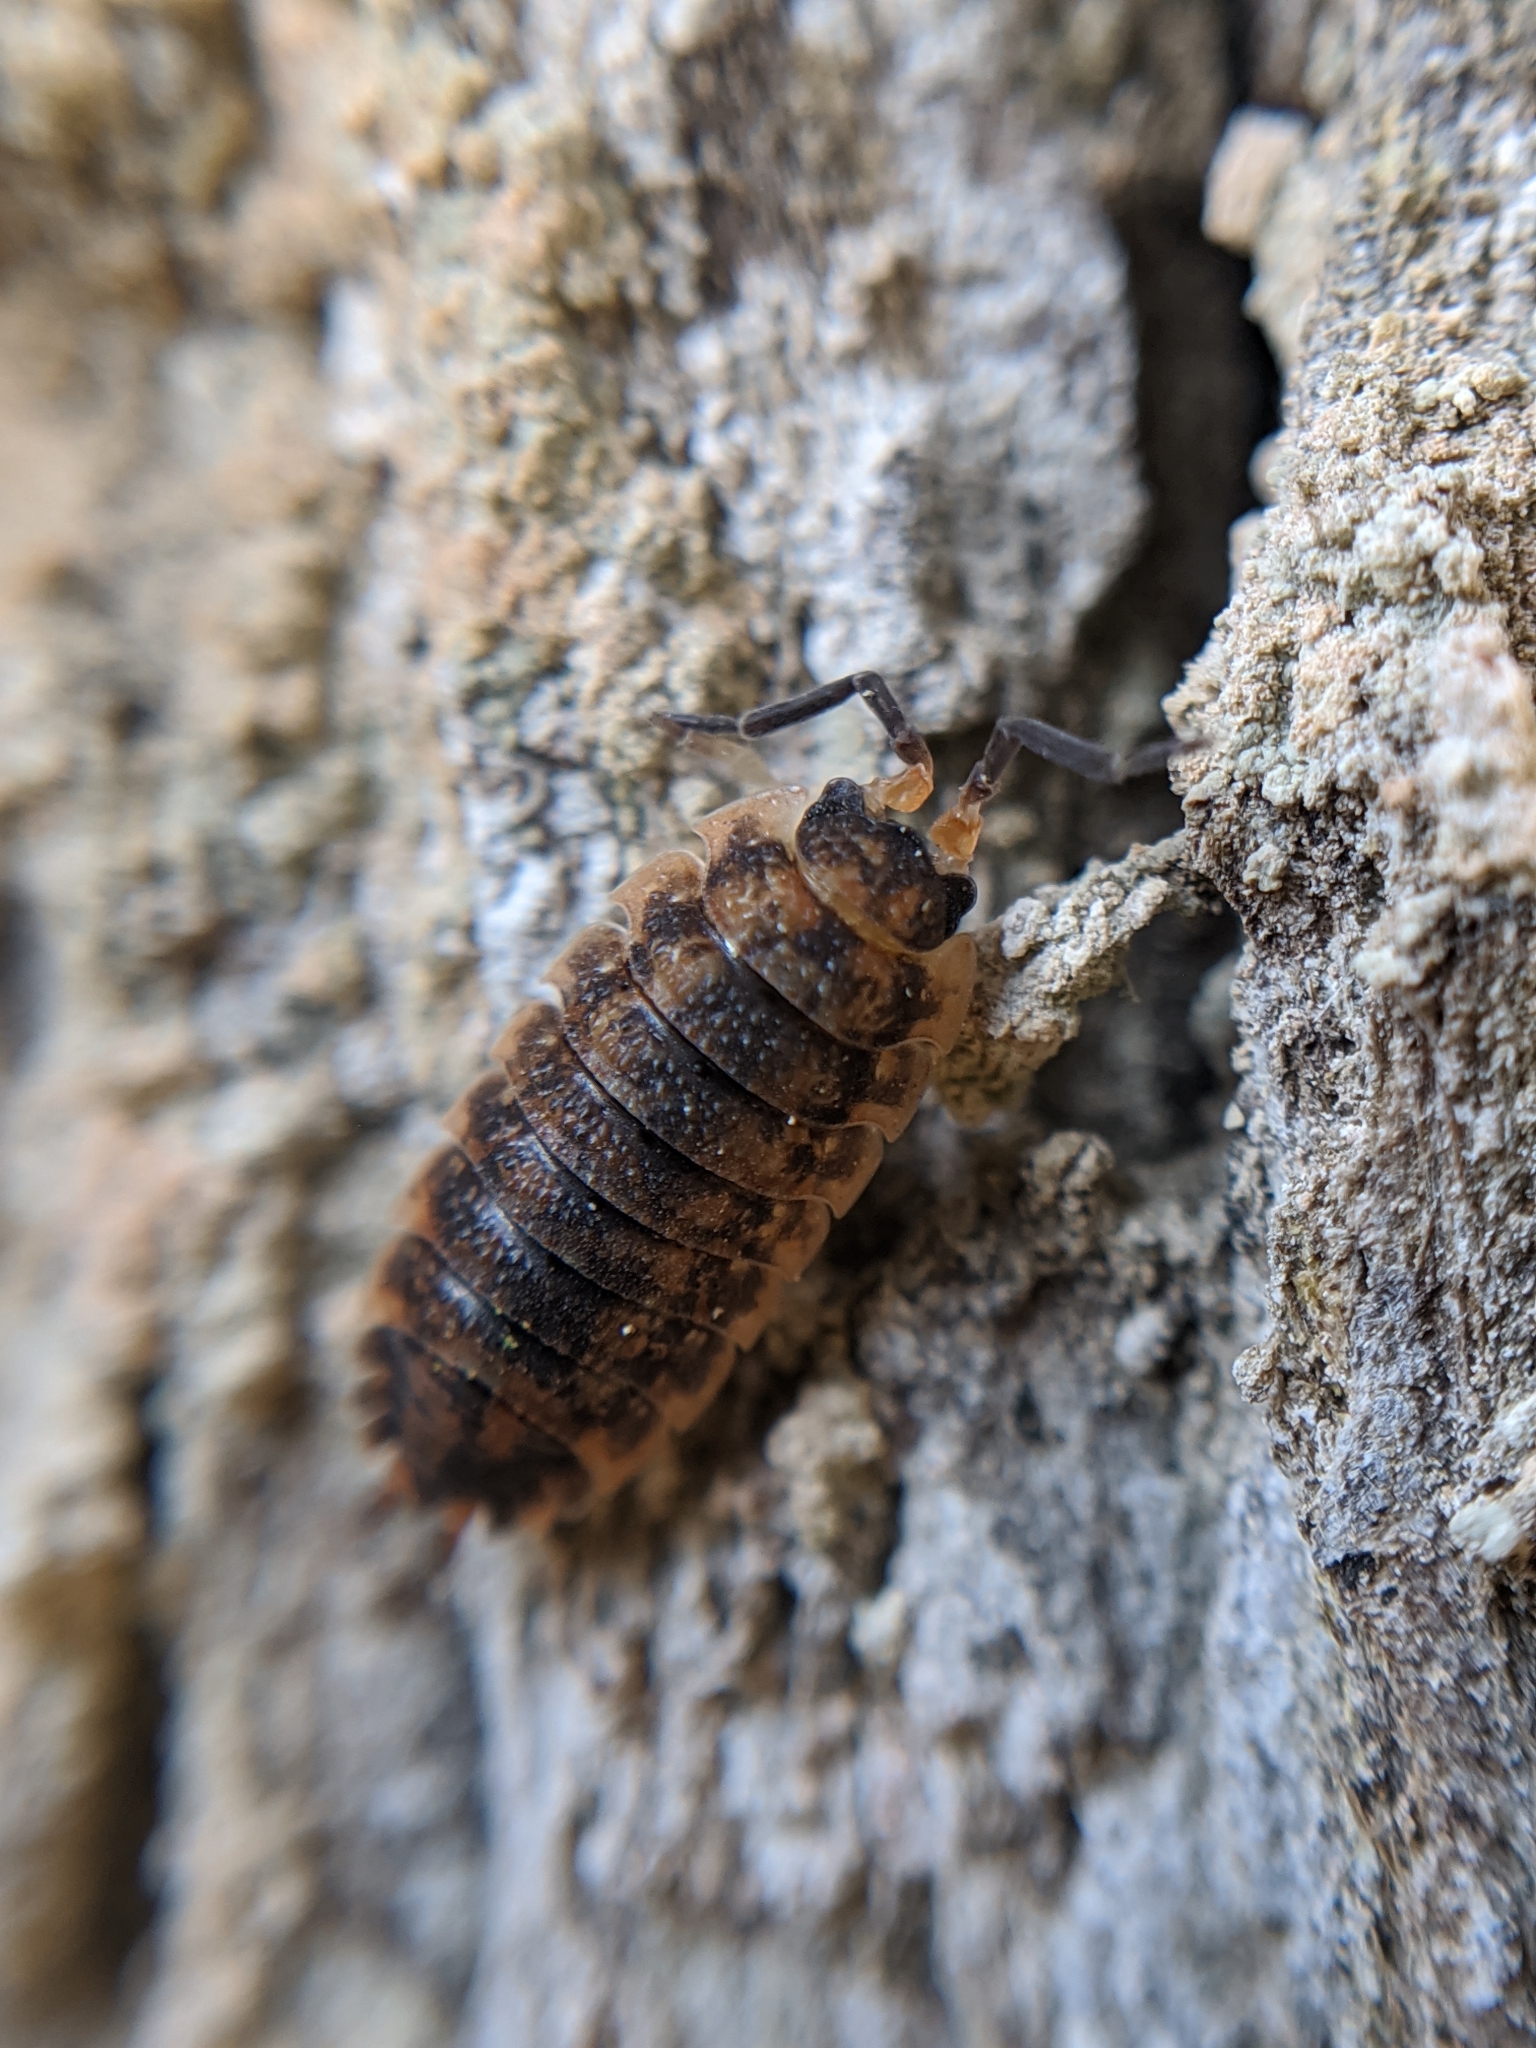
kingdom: Animalia
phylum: Arthropoda
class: Malacostraca
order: Isopoda
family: Porcellionidae
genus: Porcellio
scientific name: Porcellio scaber
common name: Common rough woodlouse
